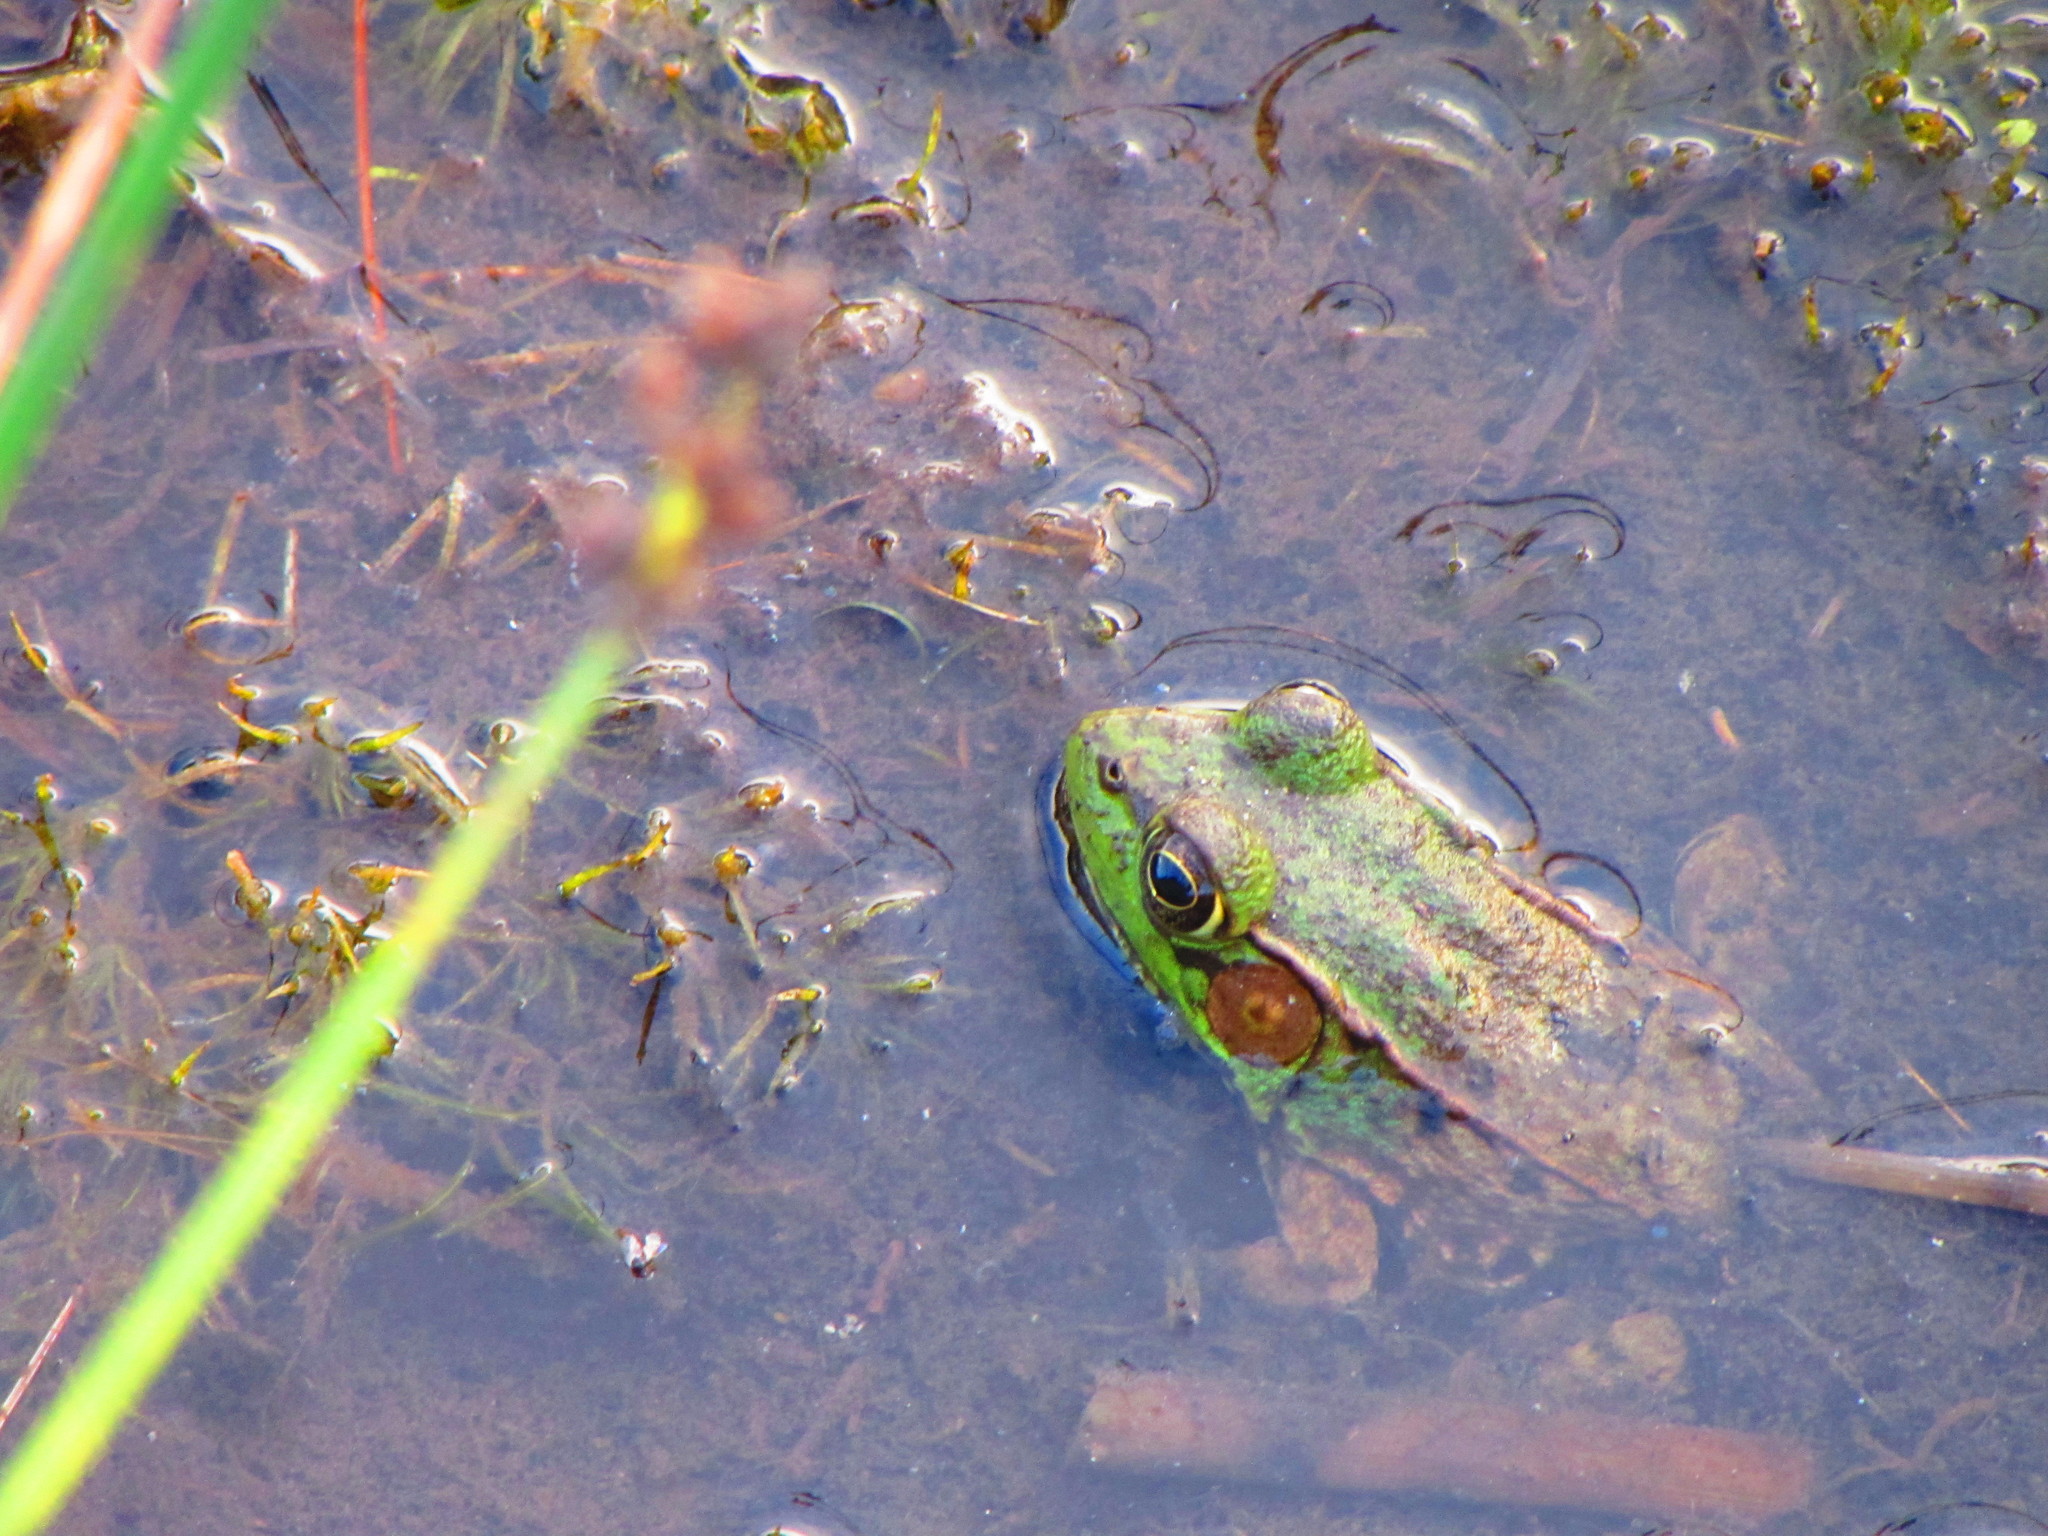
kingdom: Animalia
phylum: Chordata
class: Amphibia
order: Anura
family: Ranidae
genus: Lithobates
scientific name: Lithobates clamitans
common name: Green frog
